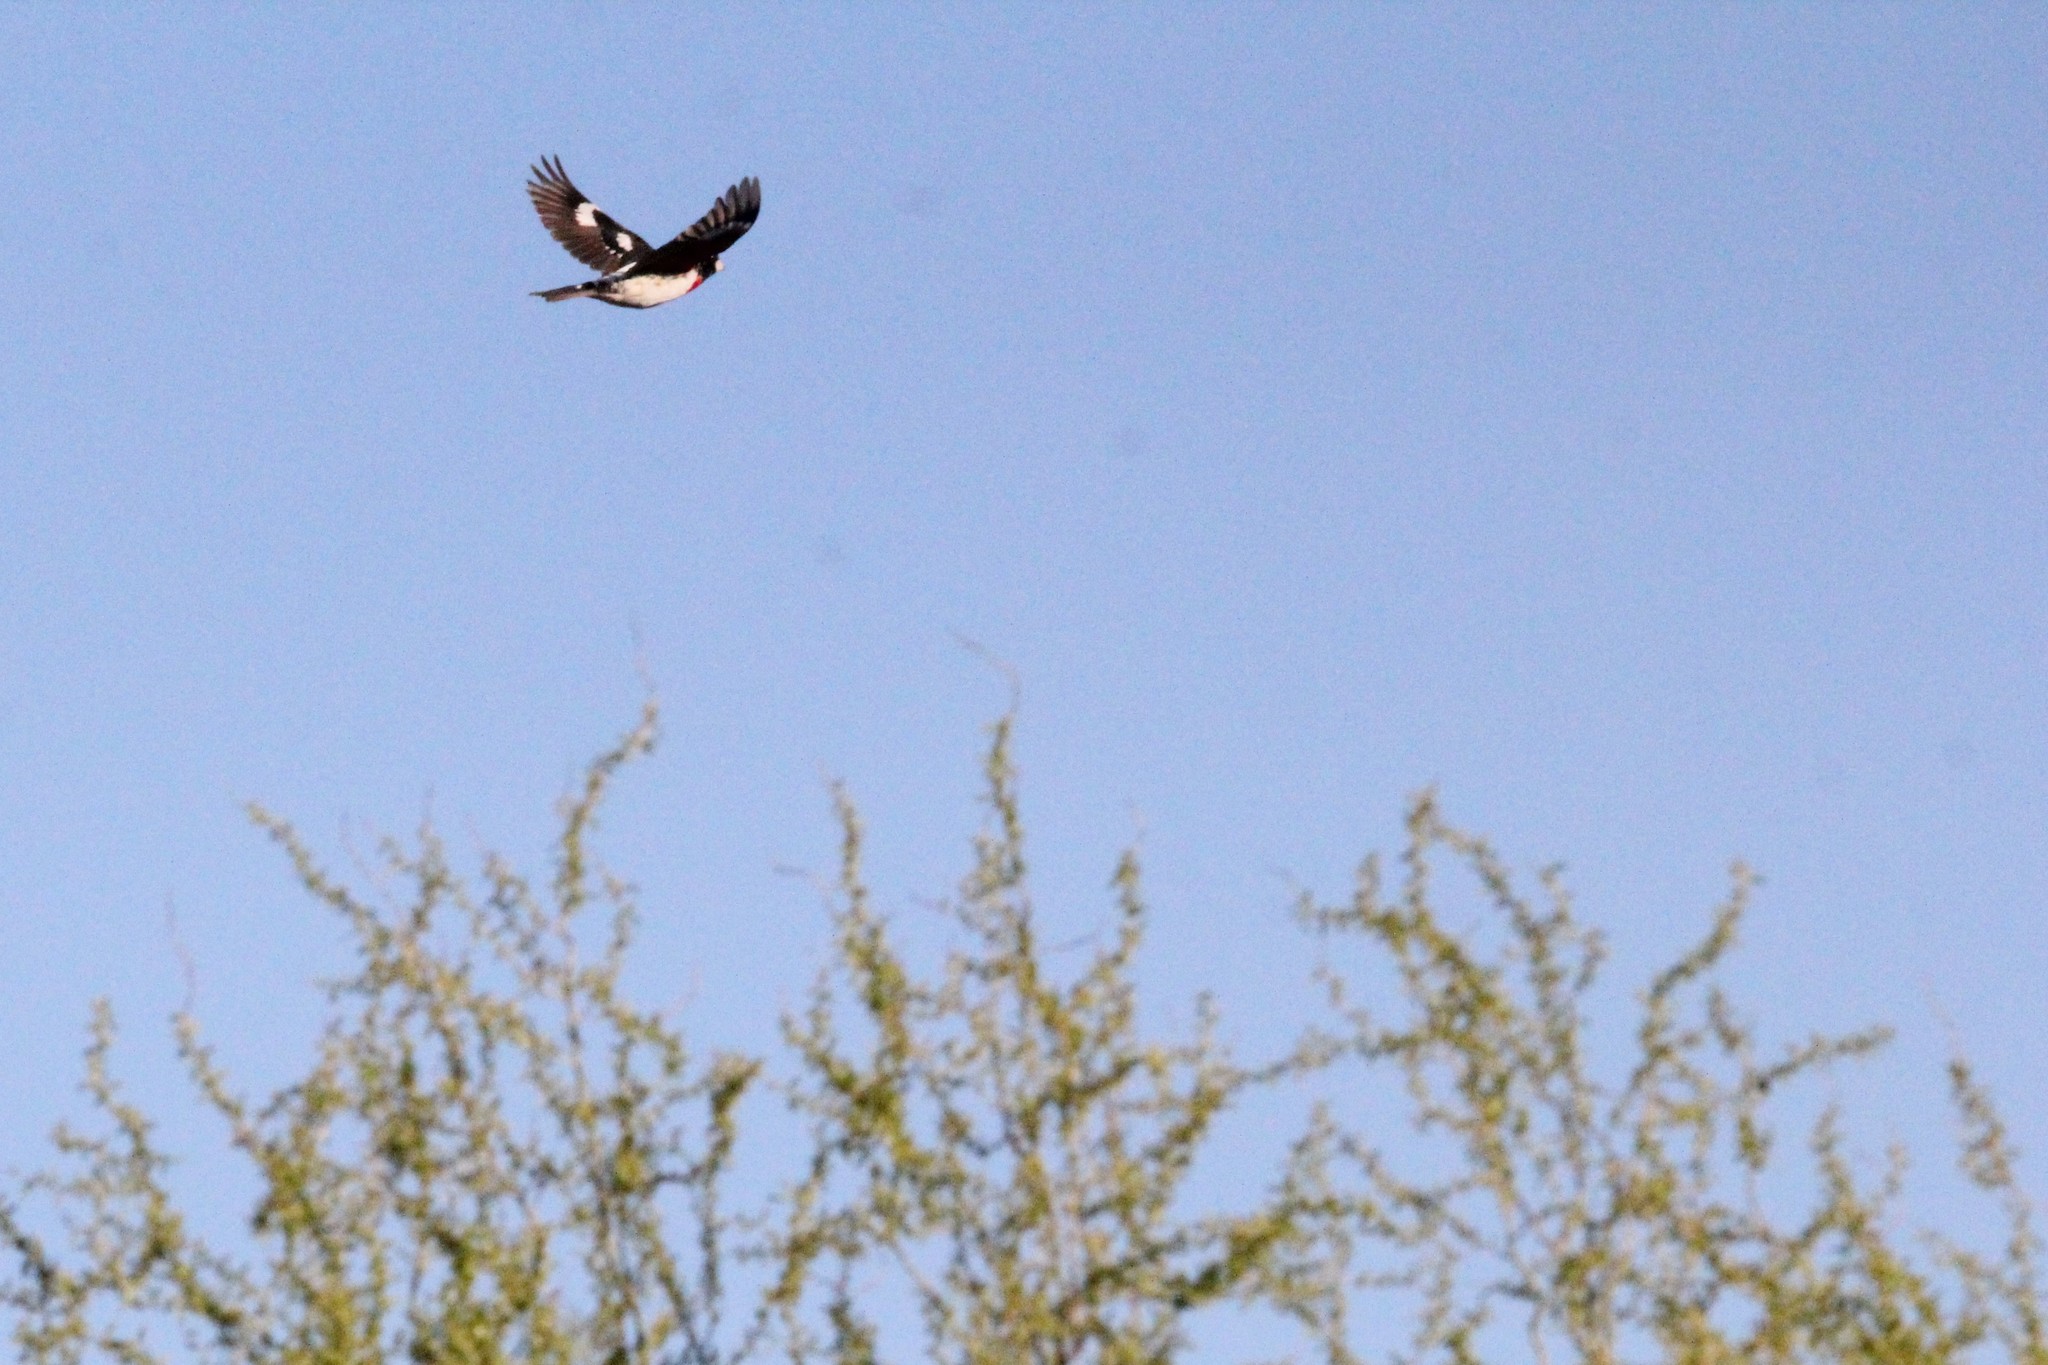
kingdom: Animalia
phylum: Chordata
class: Aves
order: Passeriformes
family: Cardinalidae
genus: Pheucticus
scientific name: Pheucticus ludovicianus
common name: Rose-breasted grosbeak
